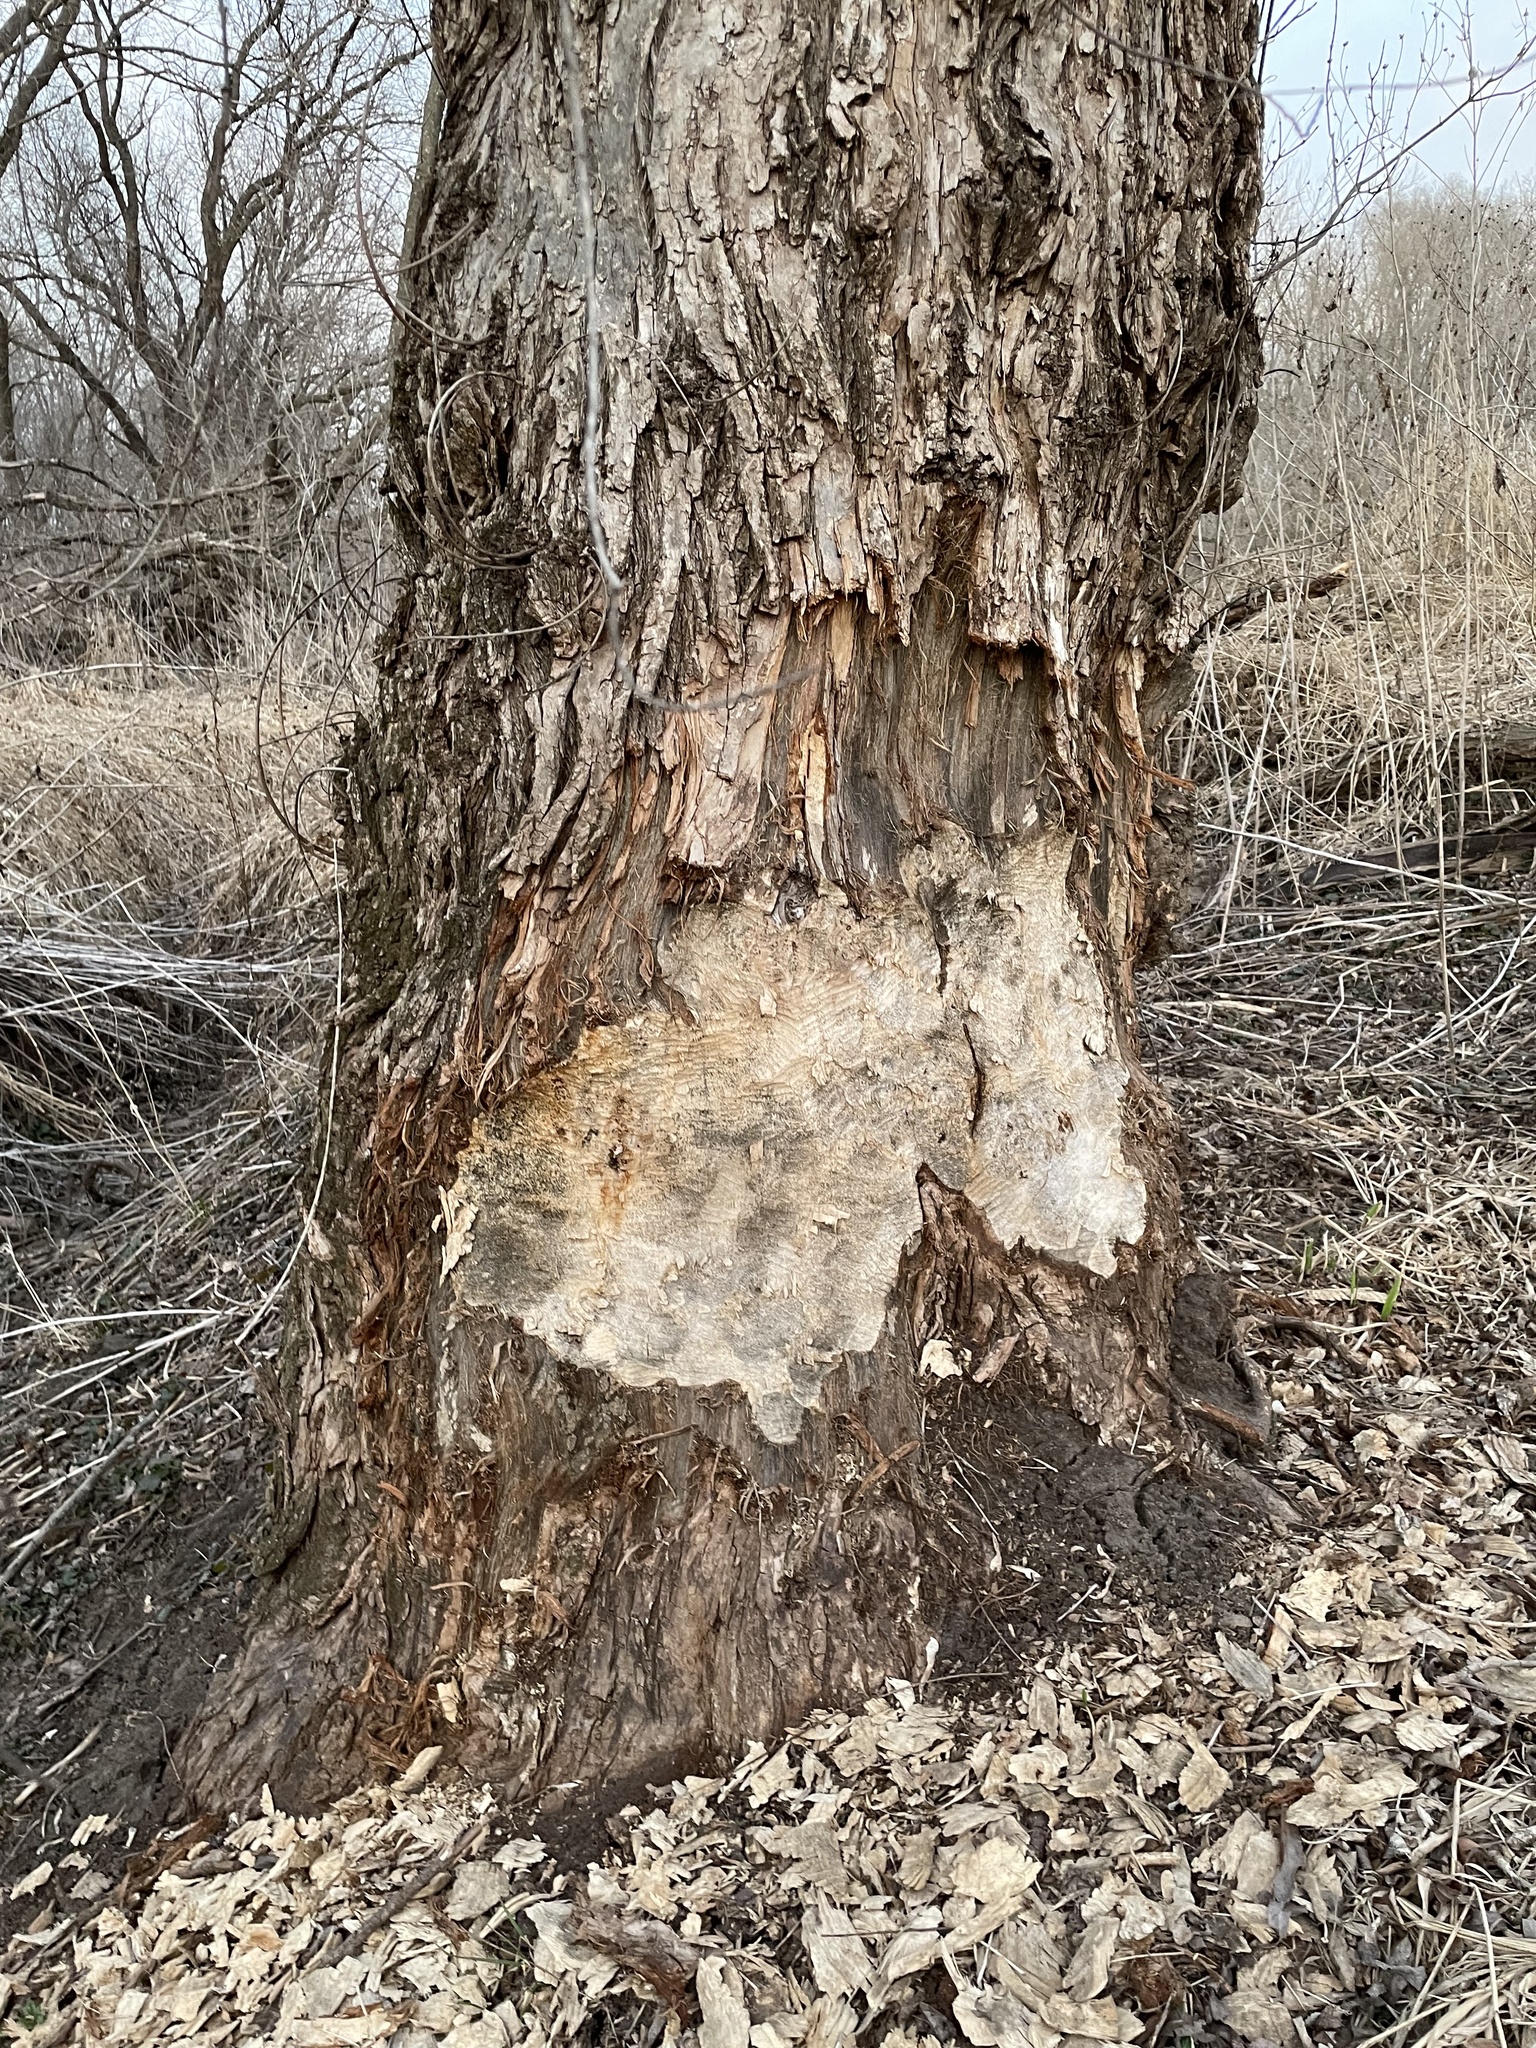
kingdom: Animalia
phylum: Chordata
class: Mammalia
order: Rodentia
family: Castoridae
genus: Castor
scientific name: Castor canadensis
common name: American beaver
